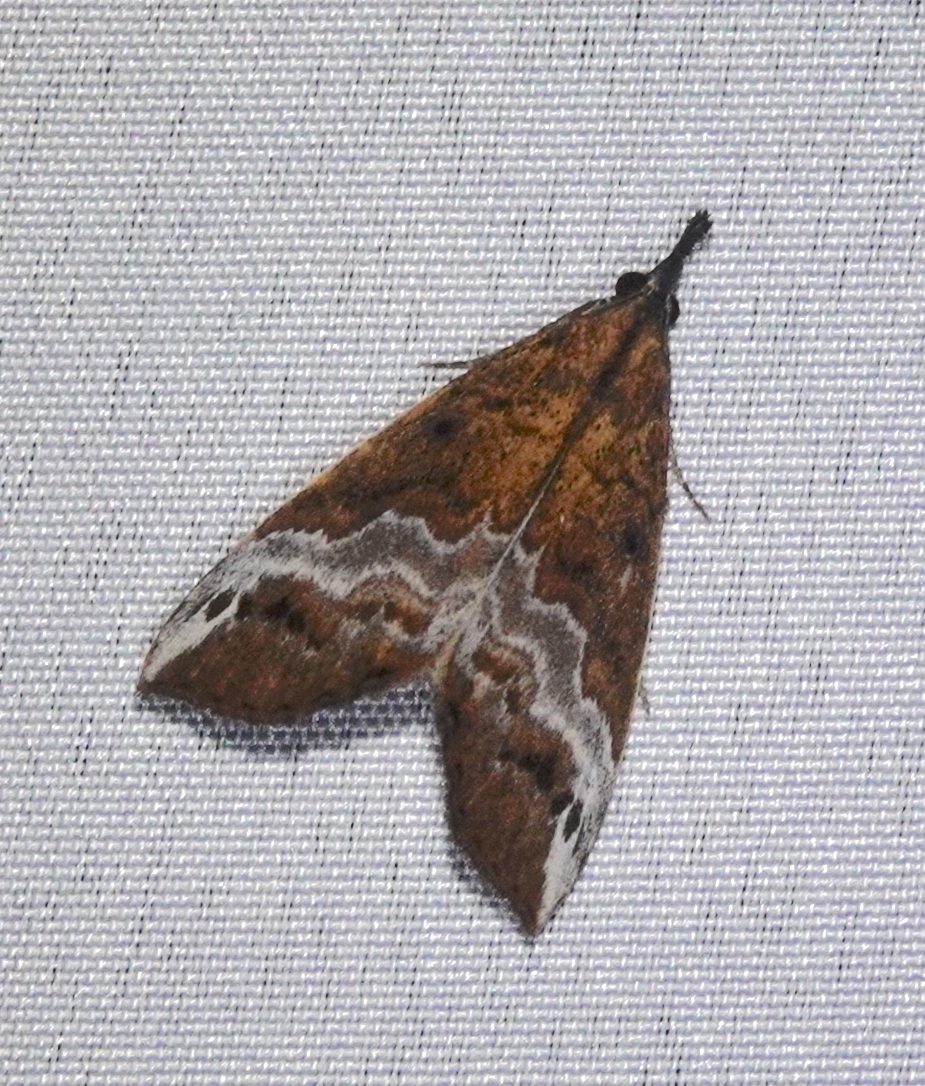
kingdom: Animalia
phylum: Arthropoda
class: Insecta
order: Lepidoptera
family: Erebidae
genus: Hypena
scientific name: Hypena lactiferalis
